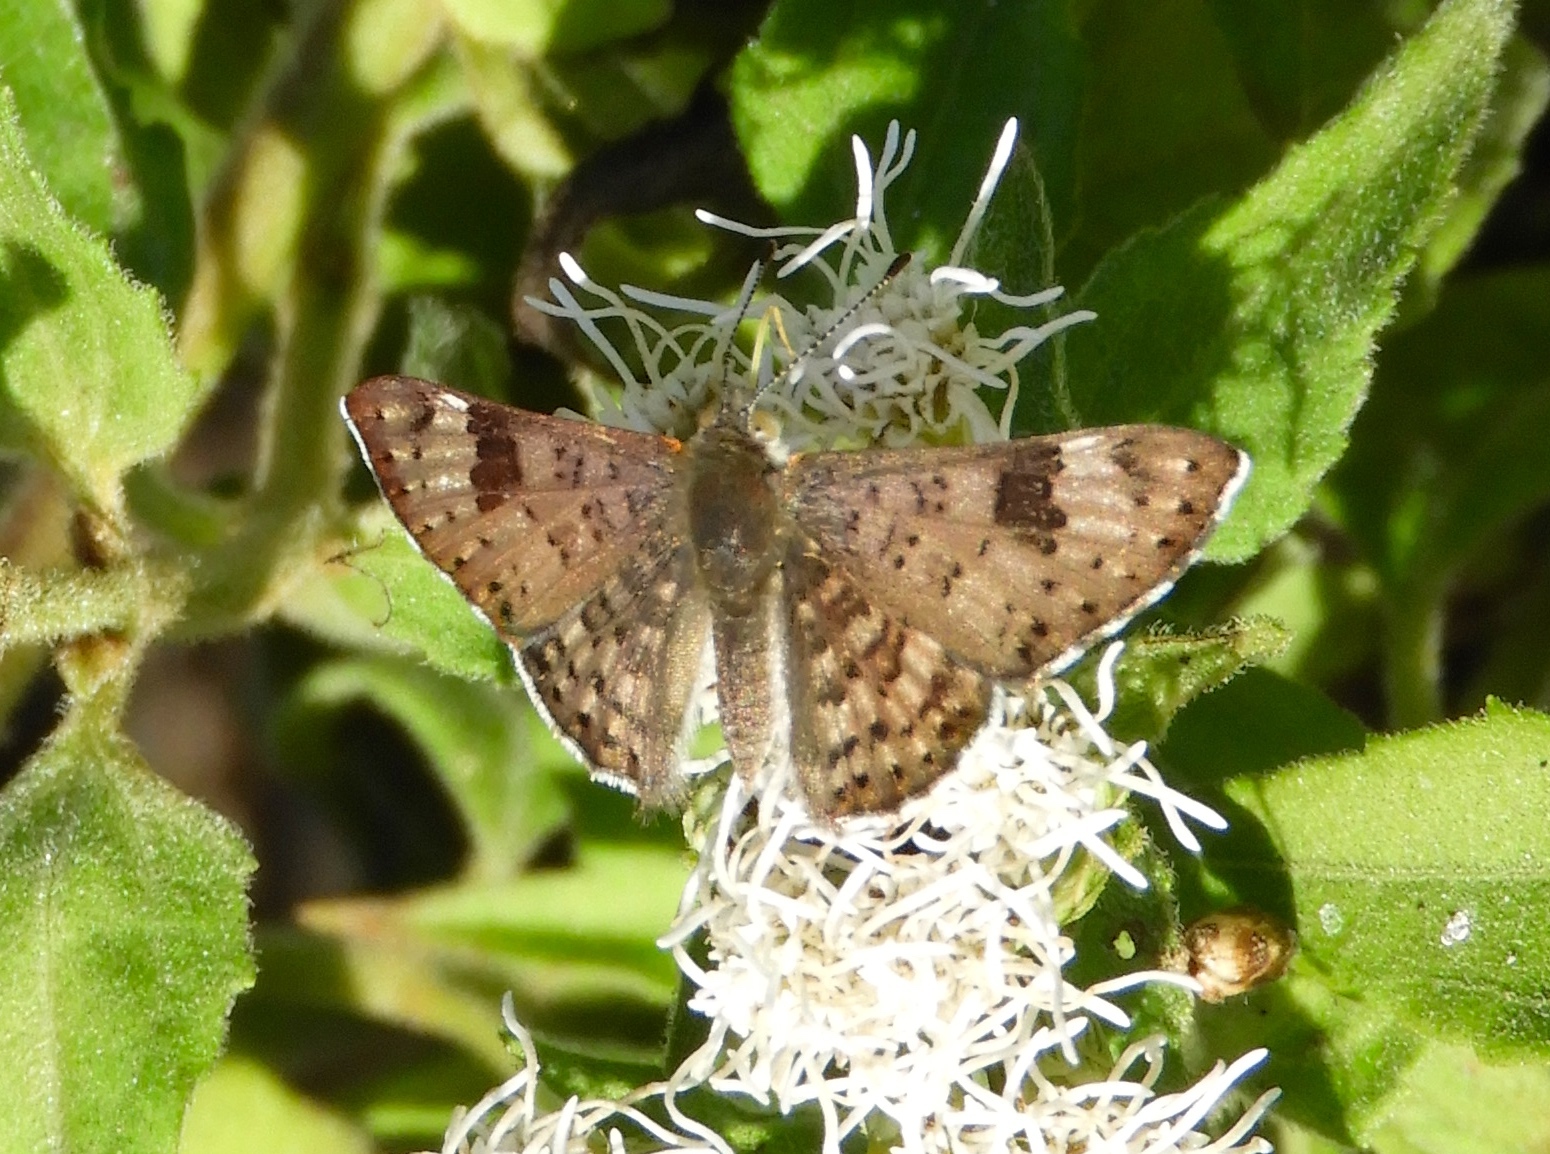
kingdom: Animalia
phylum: Arthropoda
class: Insecta
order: Lepidoptera
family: Riodinidae
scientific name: Riodinidae
